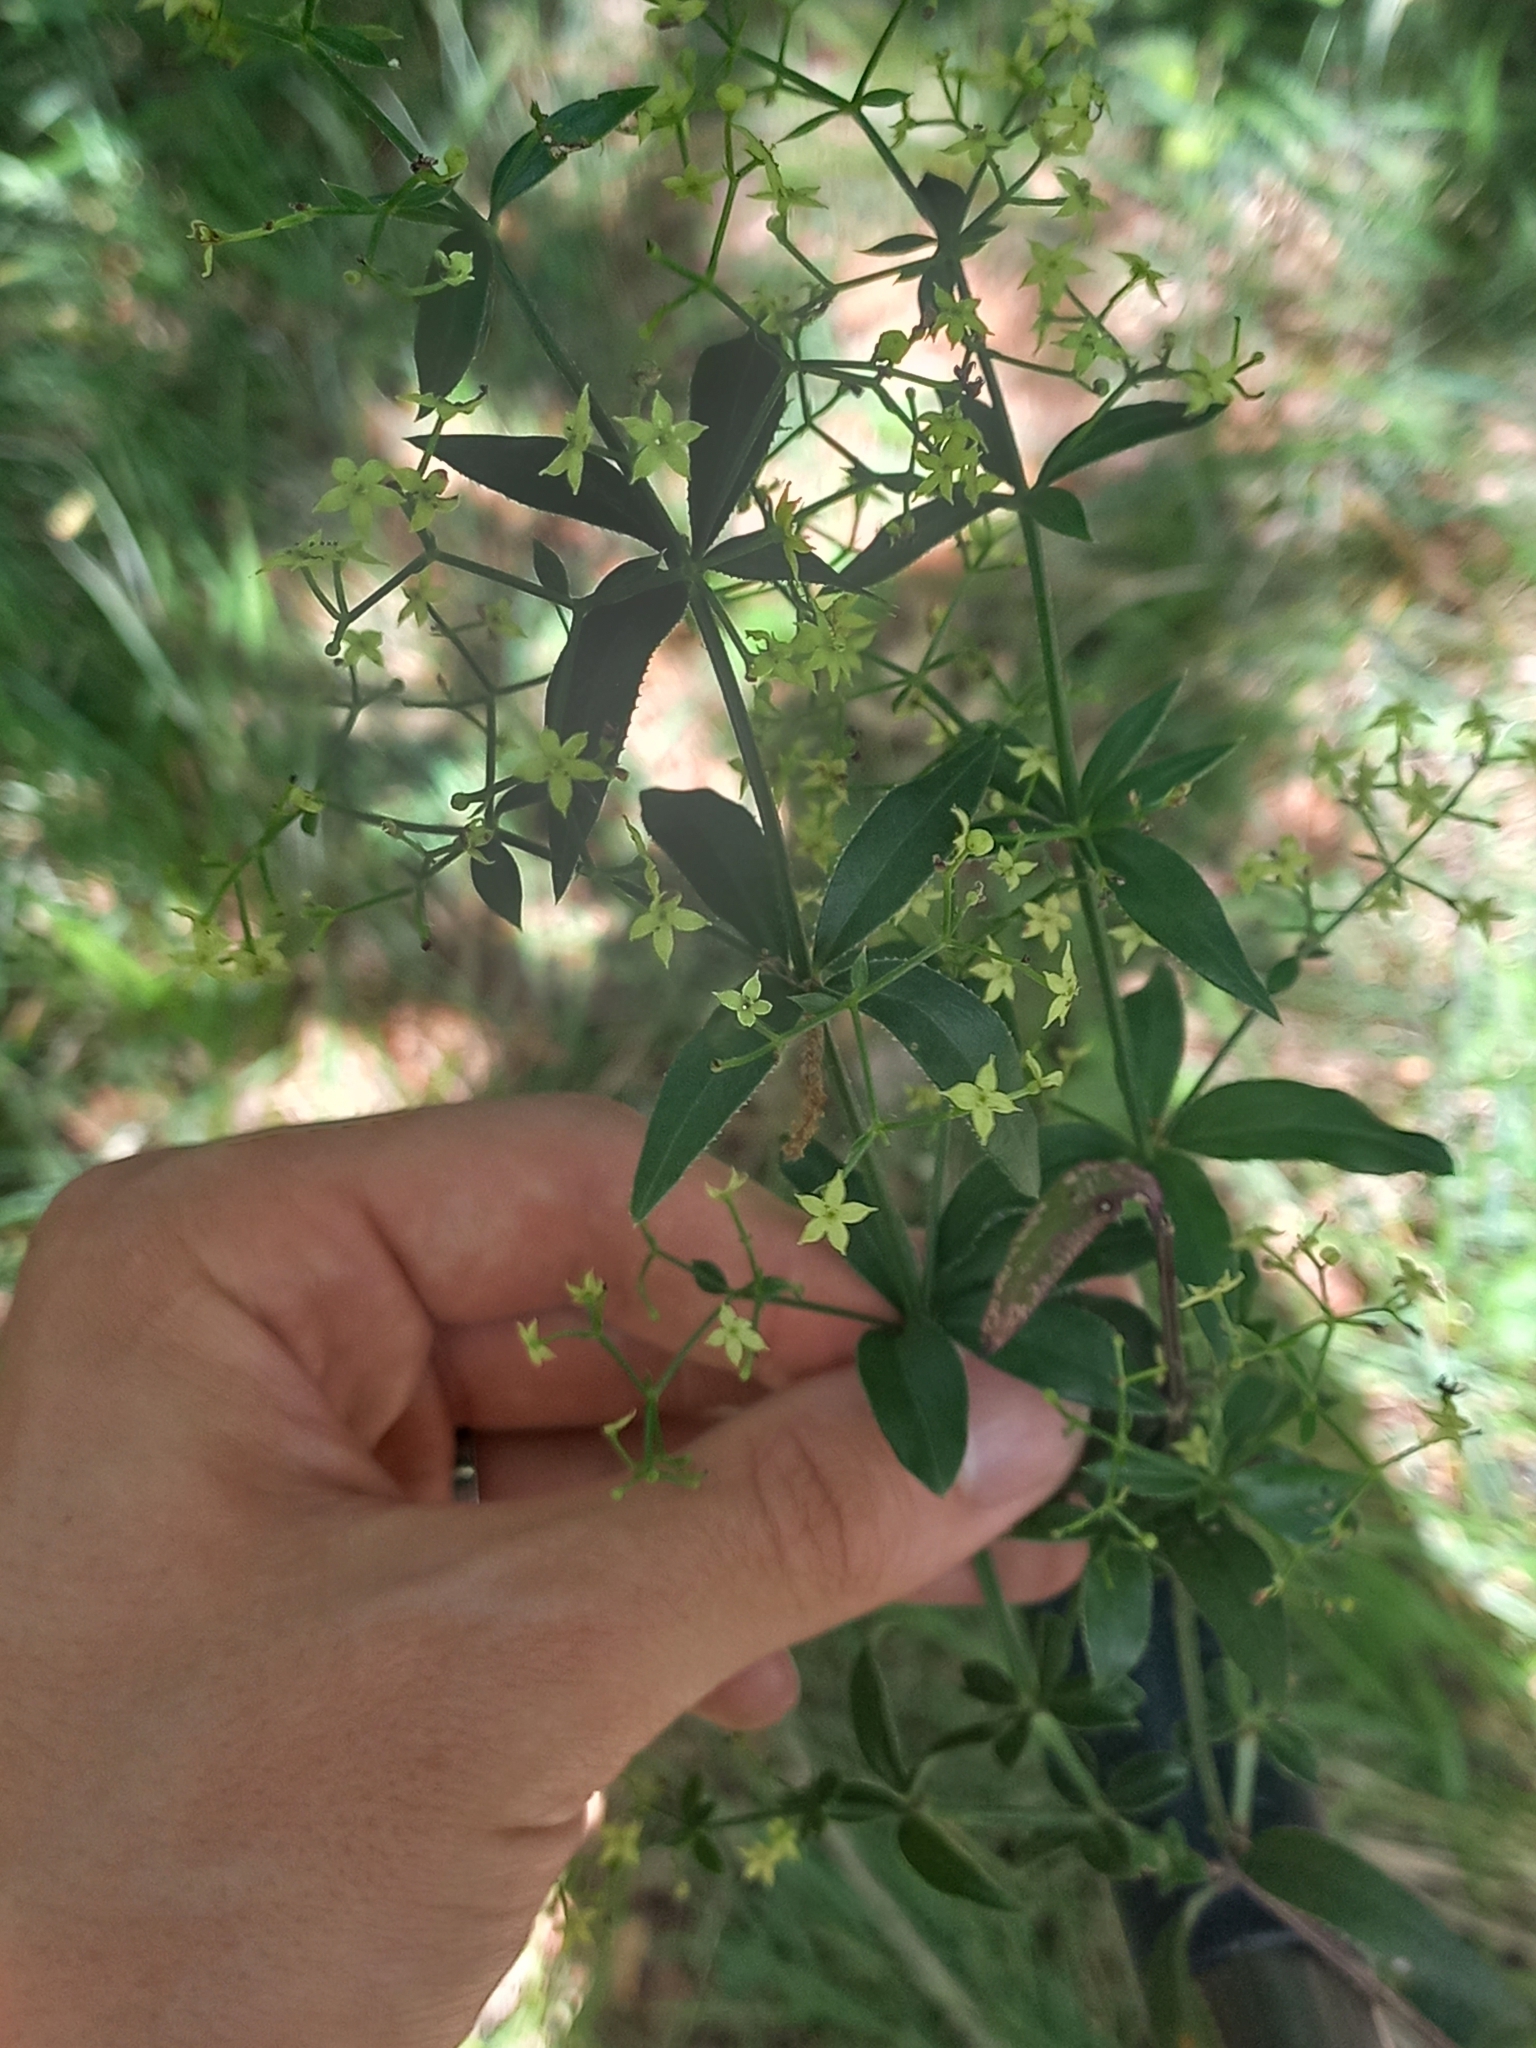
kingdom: Plantae
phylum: Tracheophyta
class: Magnoliopsida
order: Gentianales
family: Rubiaceae
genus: Rubia
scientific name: Rubia peregrina
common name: Wild madder
